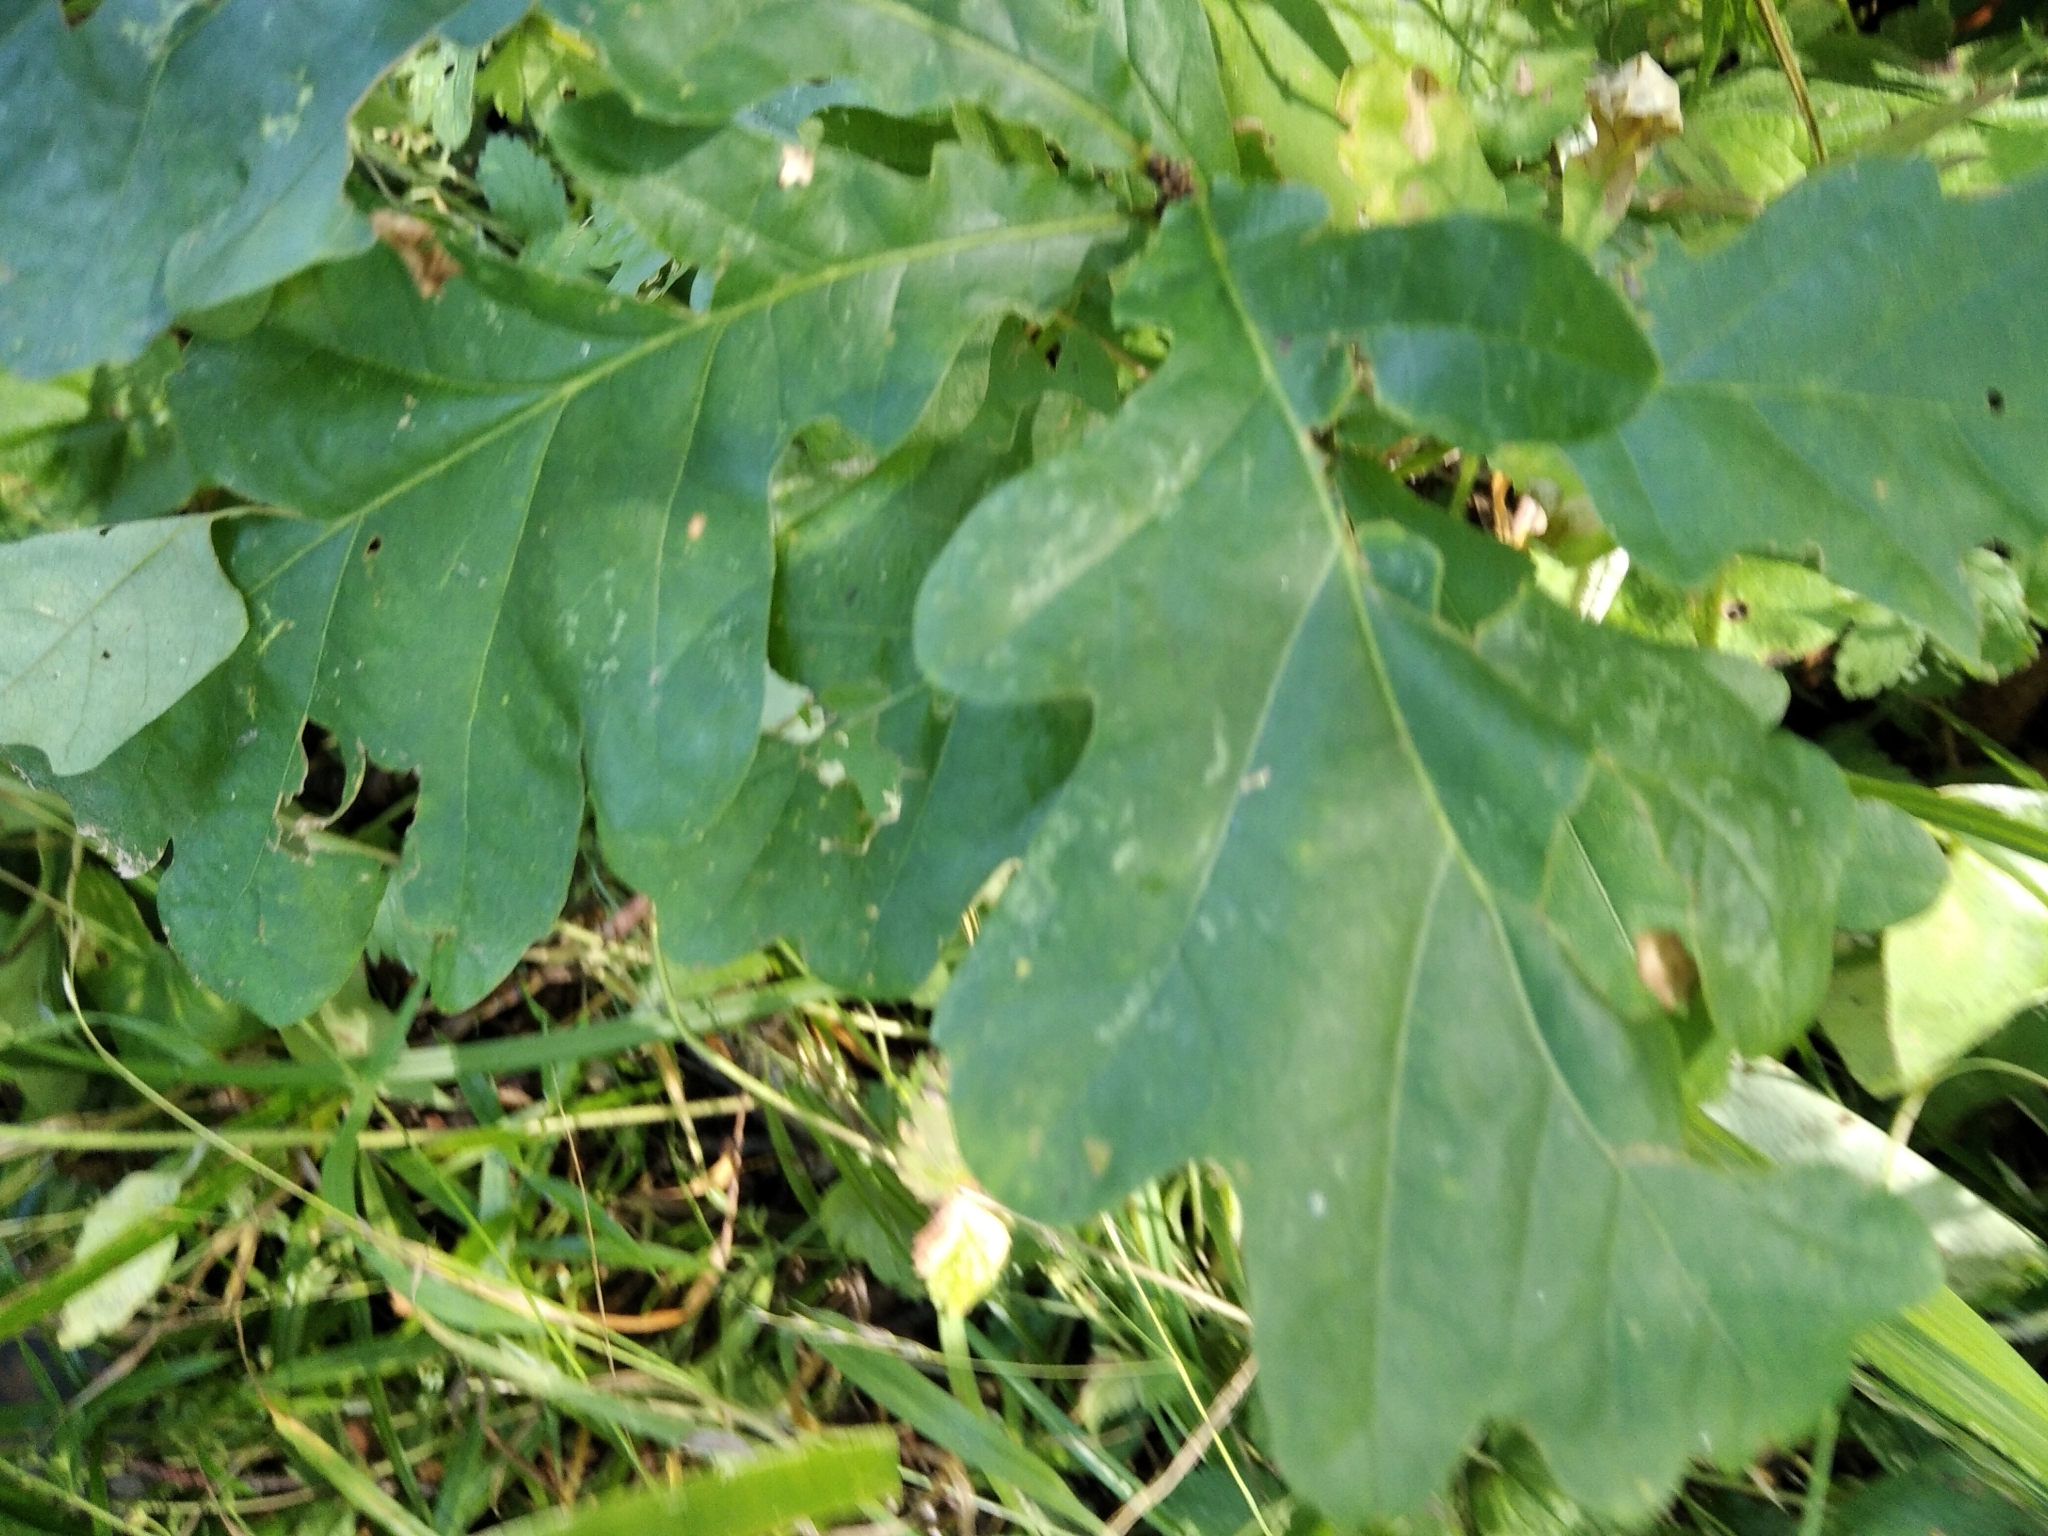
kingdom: Plantae
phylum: Tracheophyta
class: Magnoliopsida
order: Fagales
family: Fagaceae
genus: Quercus
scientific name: Quercus robur
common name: Pedunculate oak
